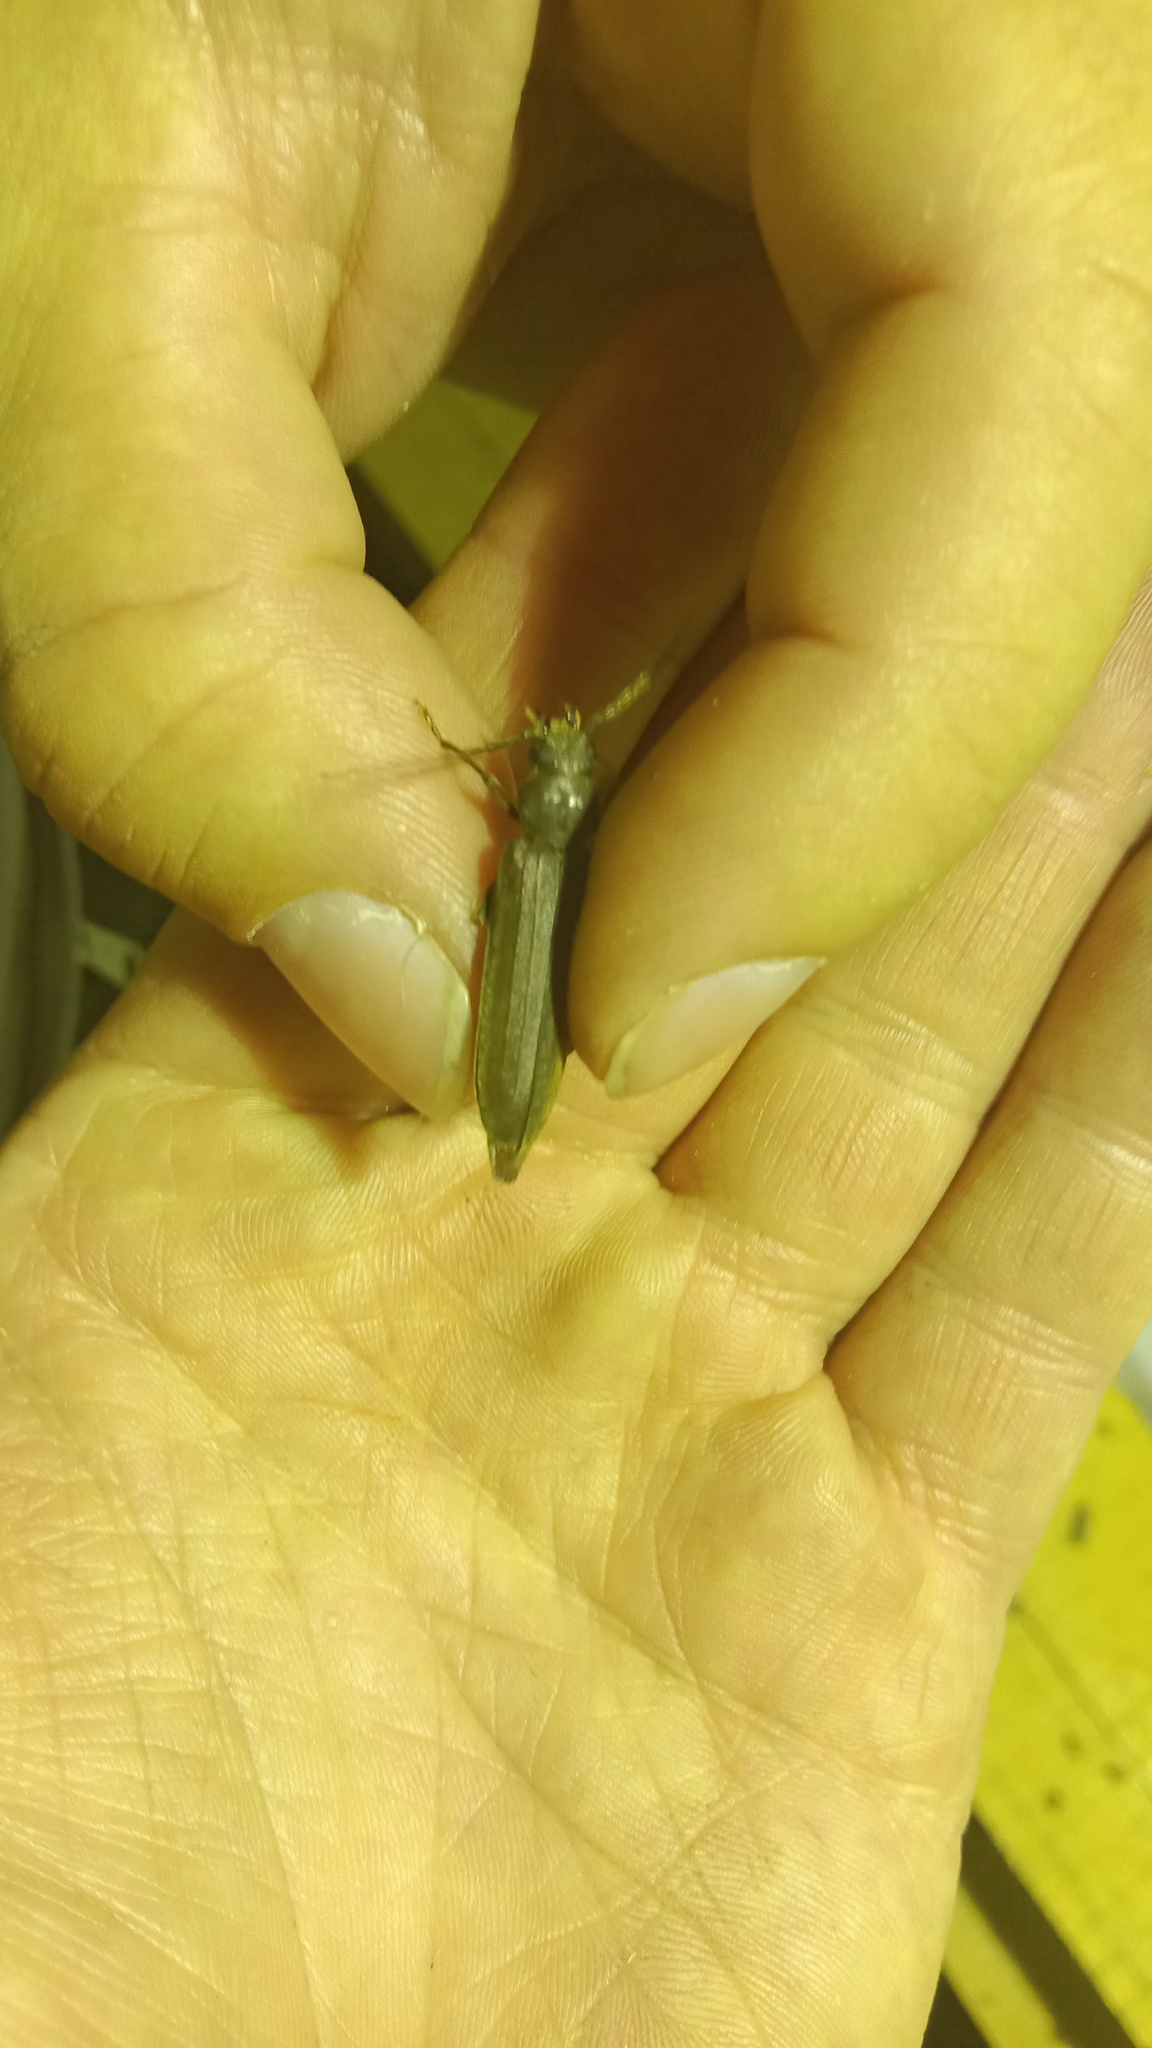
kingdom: Animalia
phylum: Arthropoda
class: Insecta
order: Coleoptera
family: Cerambycidae
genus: Arhopalus
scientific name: Arhopalus rusticus
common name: Rust pine borer
